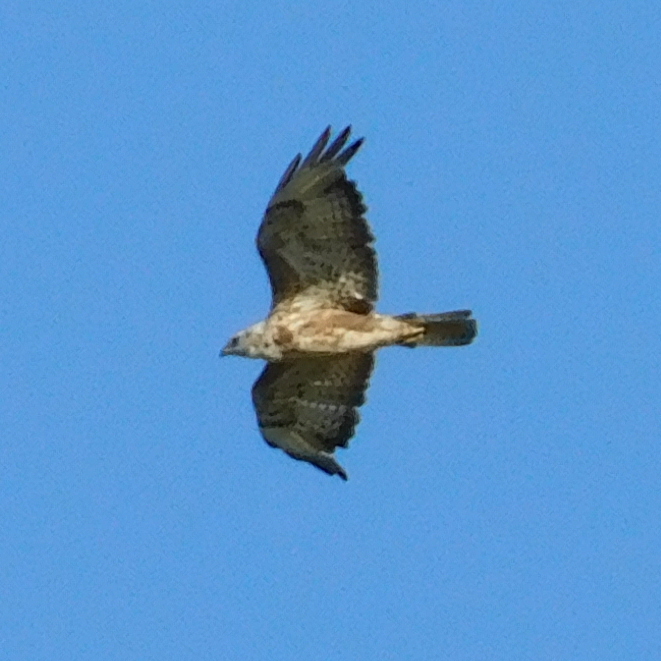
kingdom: Animalia
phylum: Chordata
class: Aves
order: Accipitriformes
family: Accipitridae
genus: Buteo
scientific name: Buteo buteo
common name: Common buzzard
